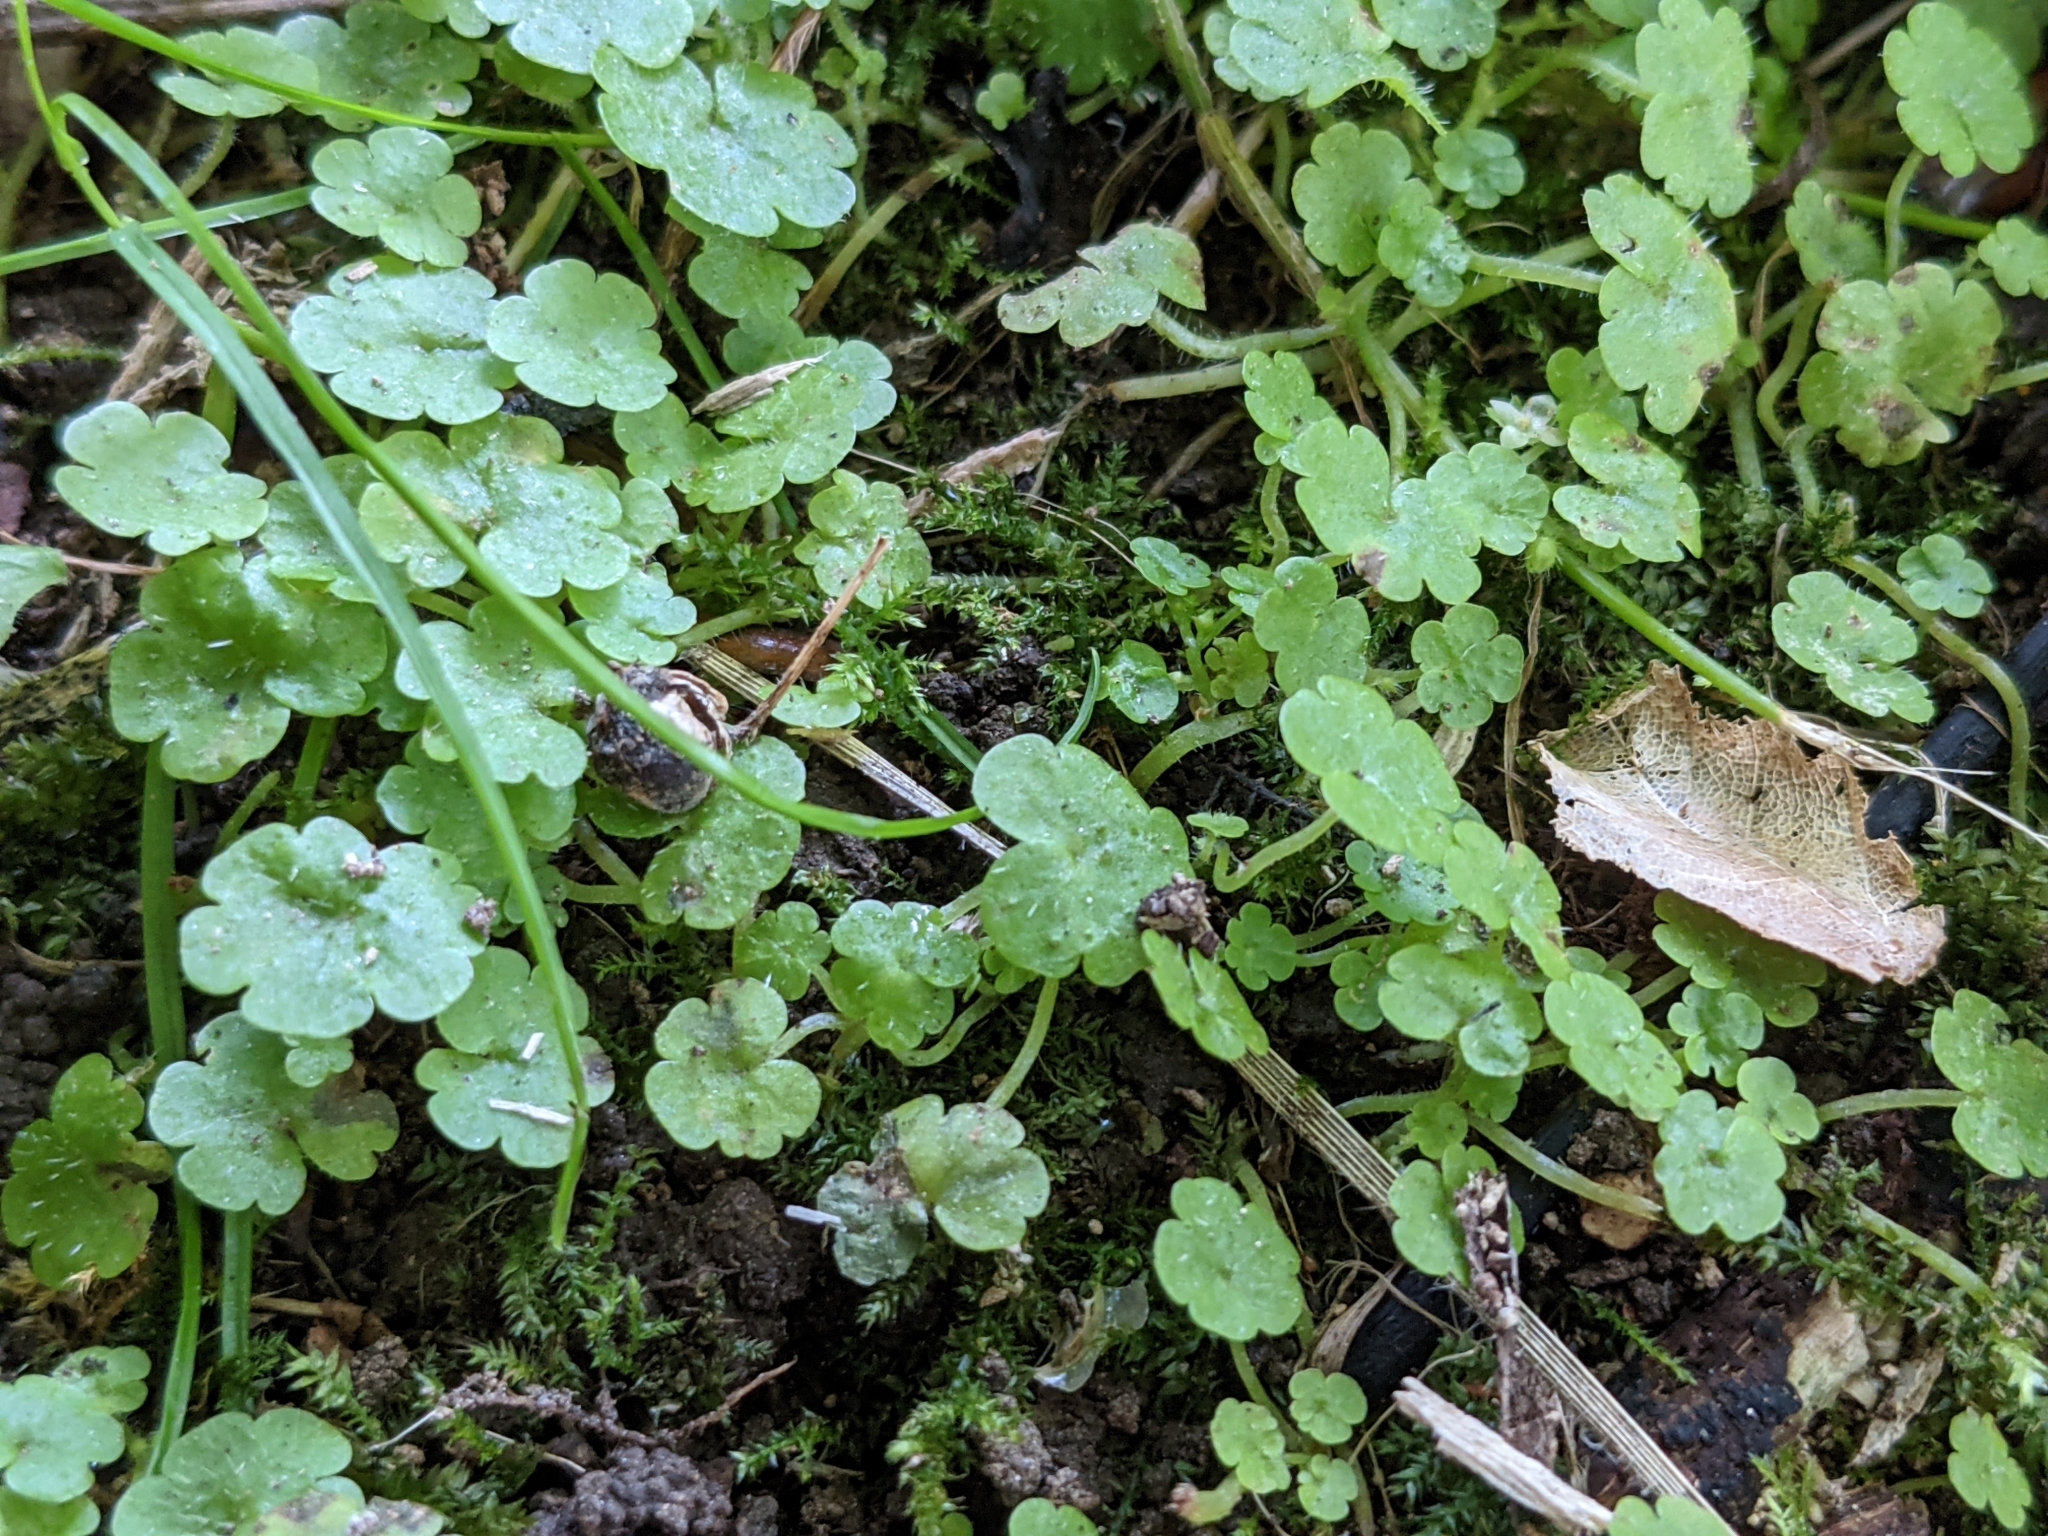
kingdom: Plantae
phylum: Tracheophyta
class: Magnoliopsida
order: Lamiales
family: Plantaginaceae
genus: Sibthorpia
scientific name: Sibthorpia europaea
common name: Cornish moneywort
